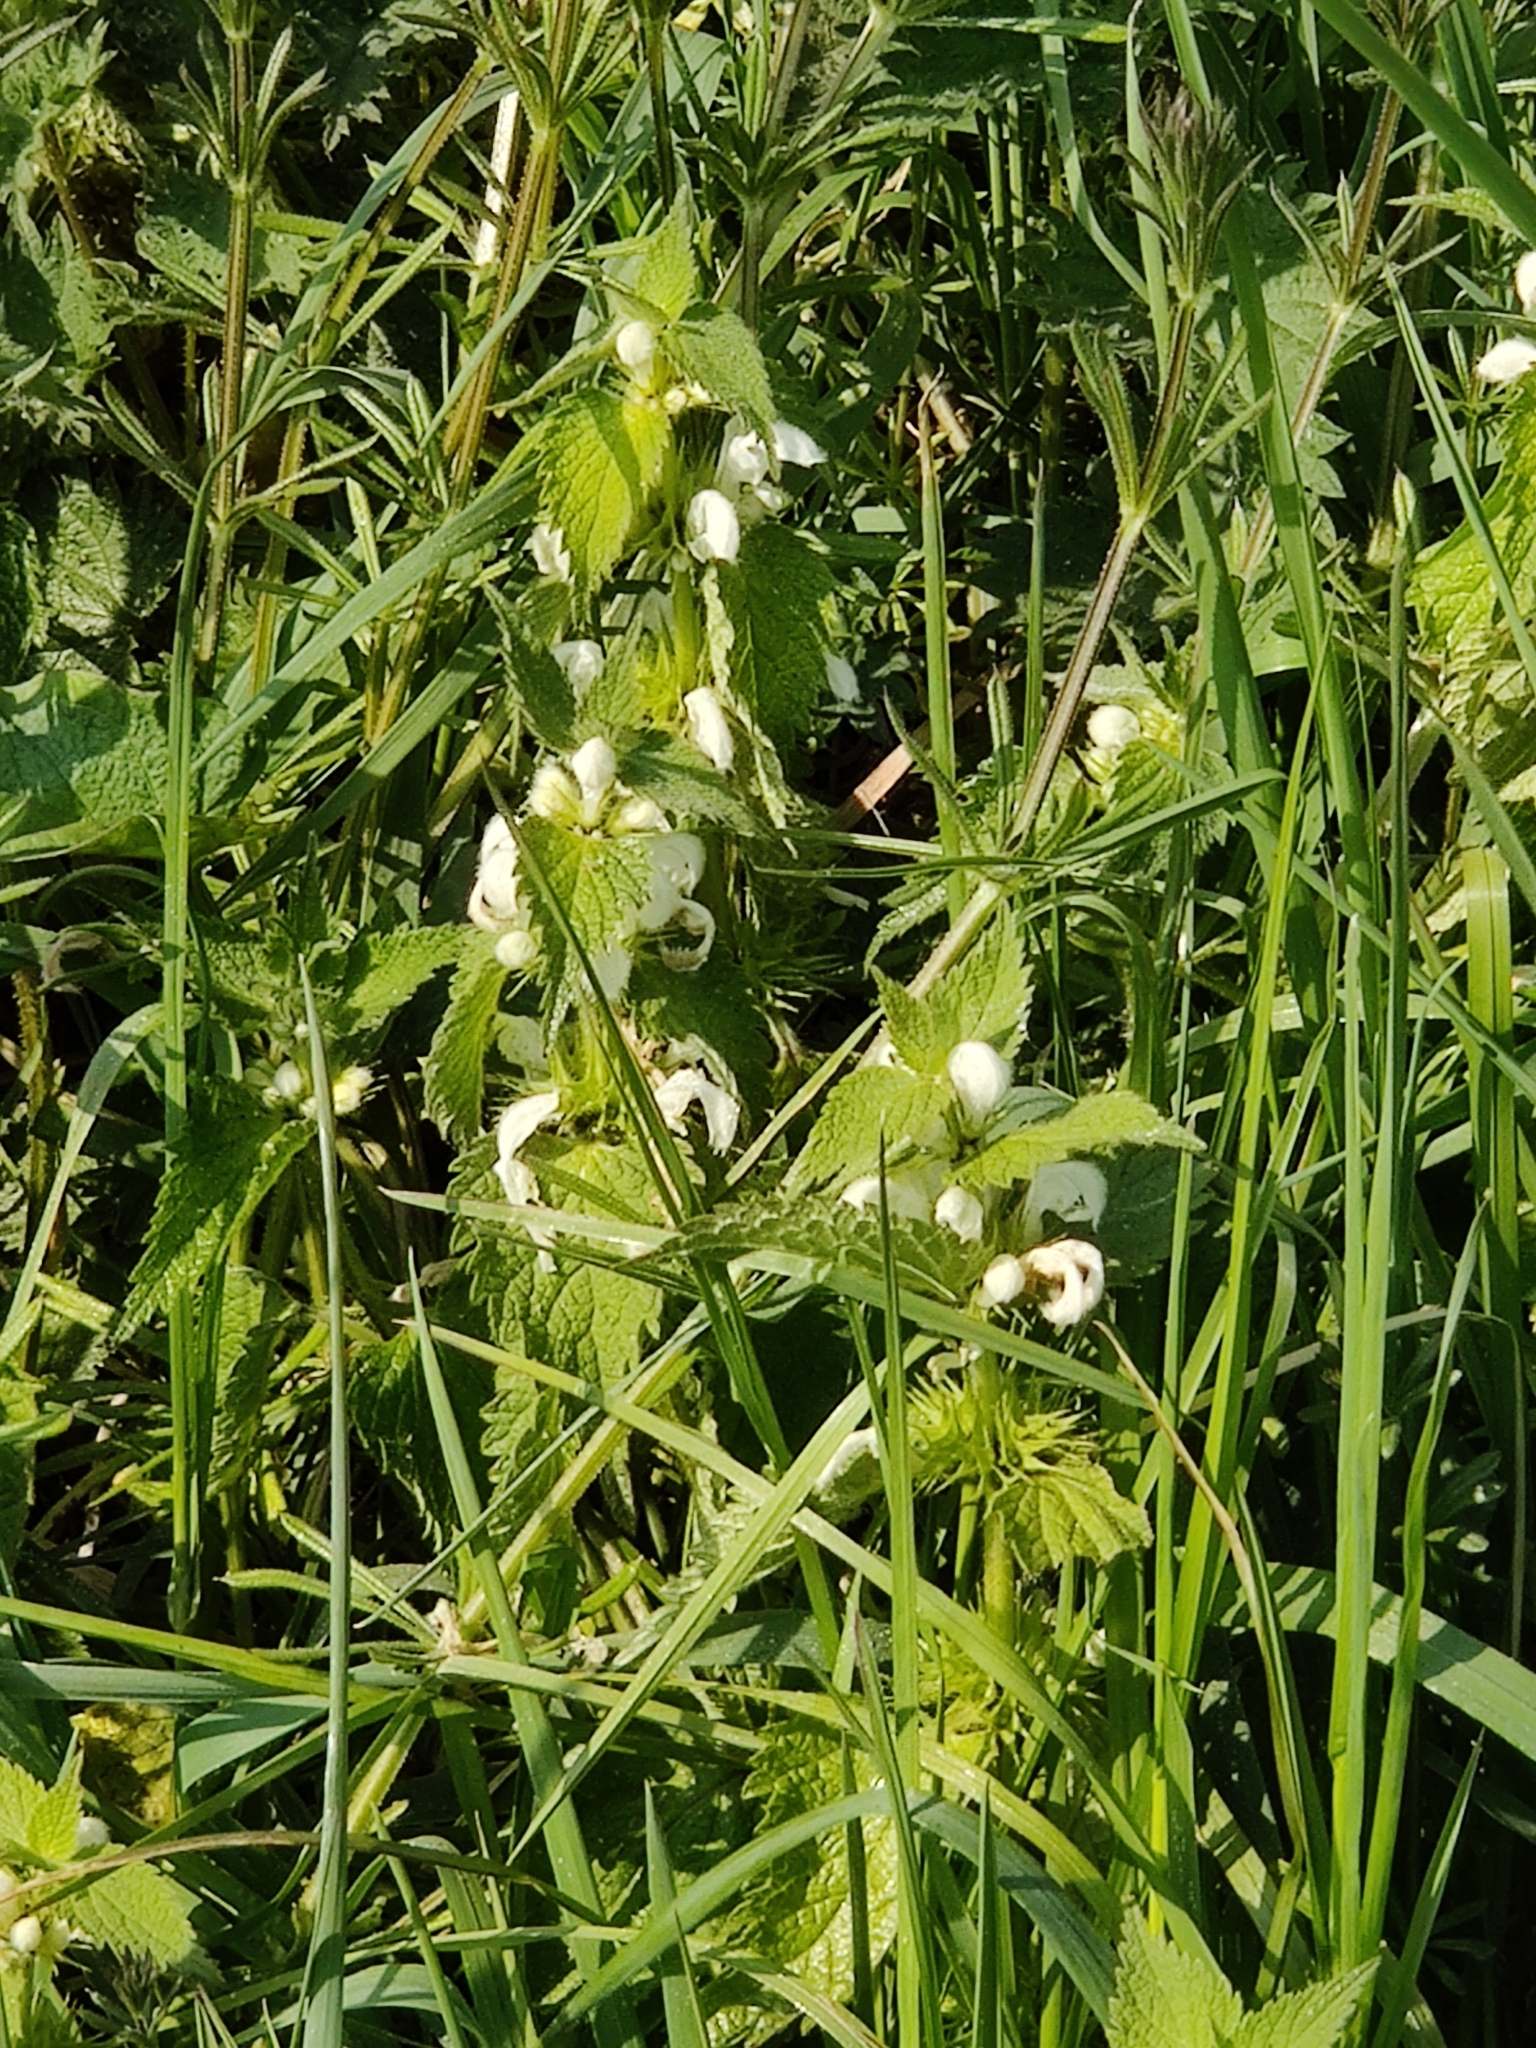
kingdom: Plantae
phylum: Tracheophyta
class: Magnoliopsida
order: Lamiales
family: Lamiaceae
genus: Lamium
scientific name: Lamium album
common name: White dead-nettle
